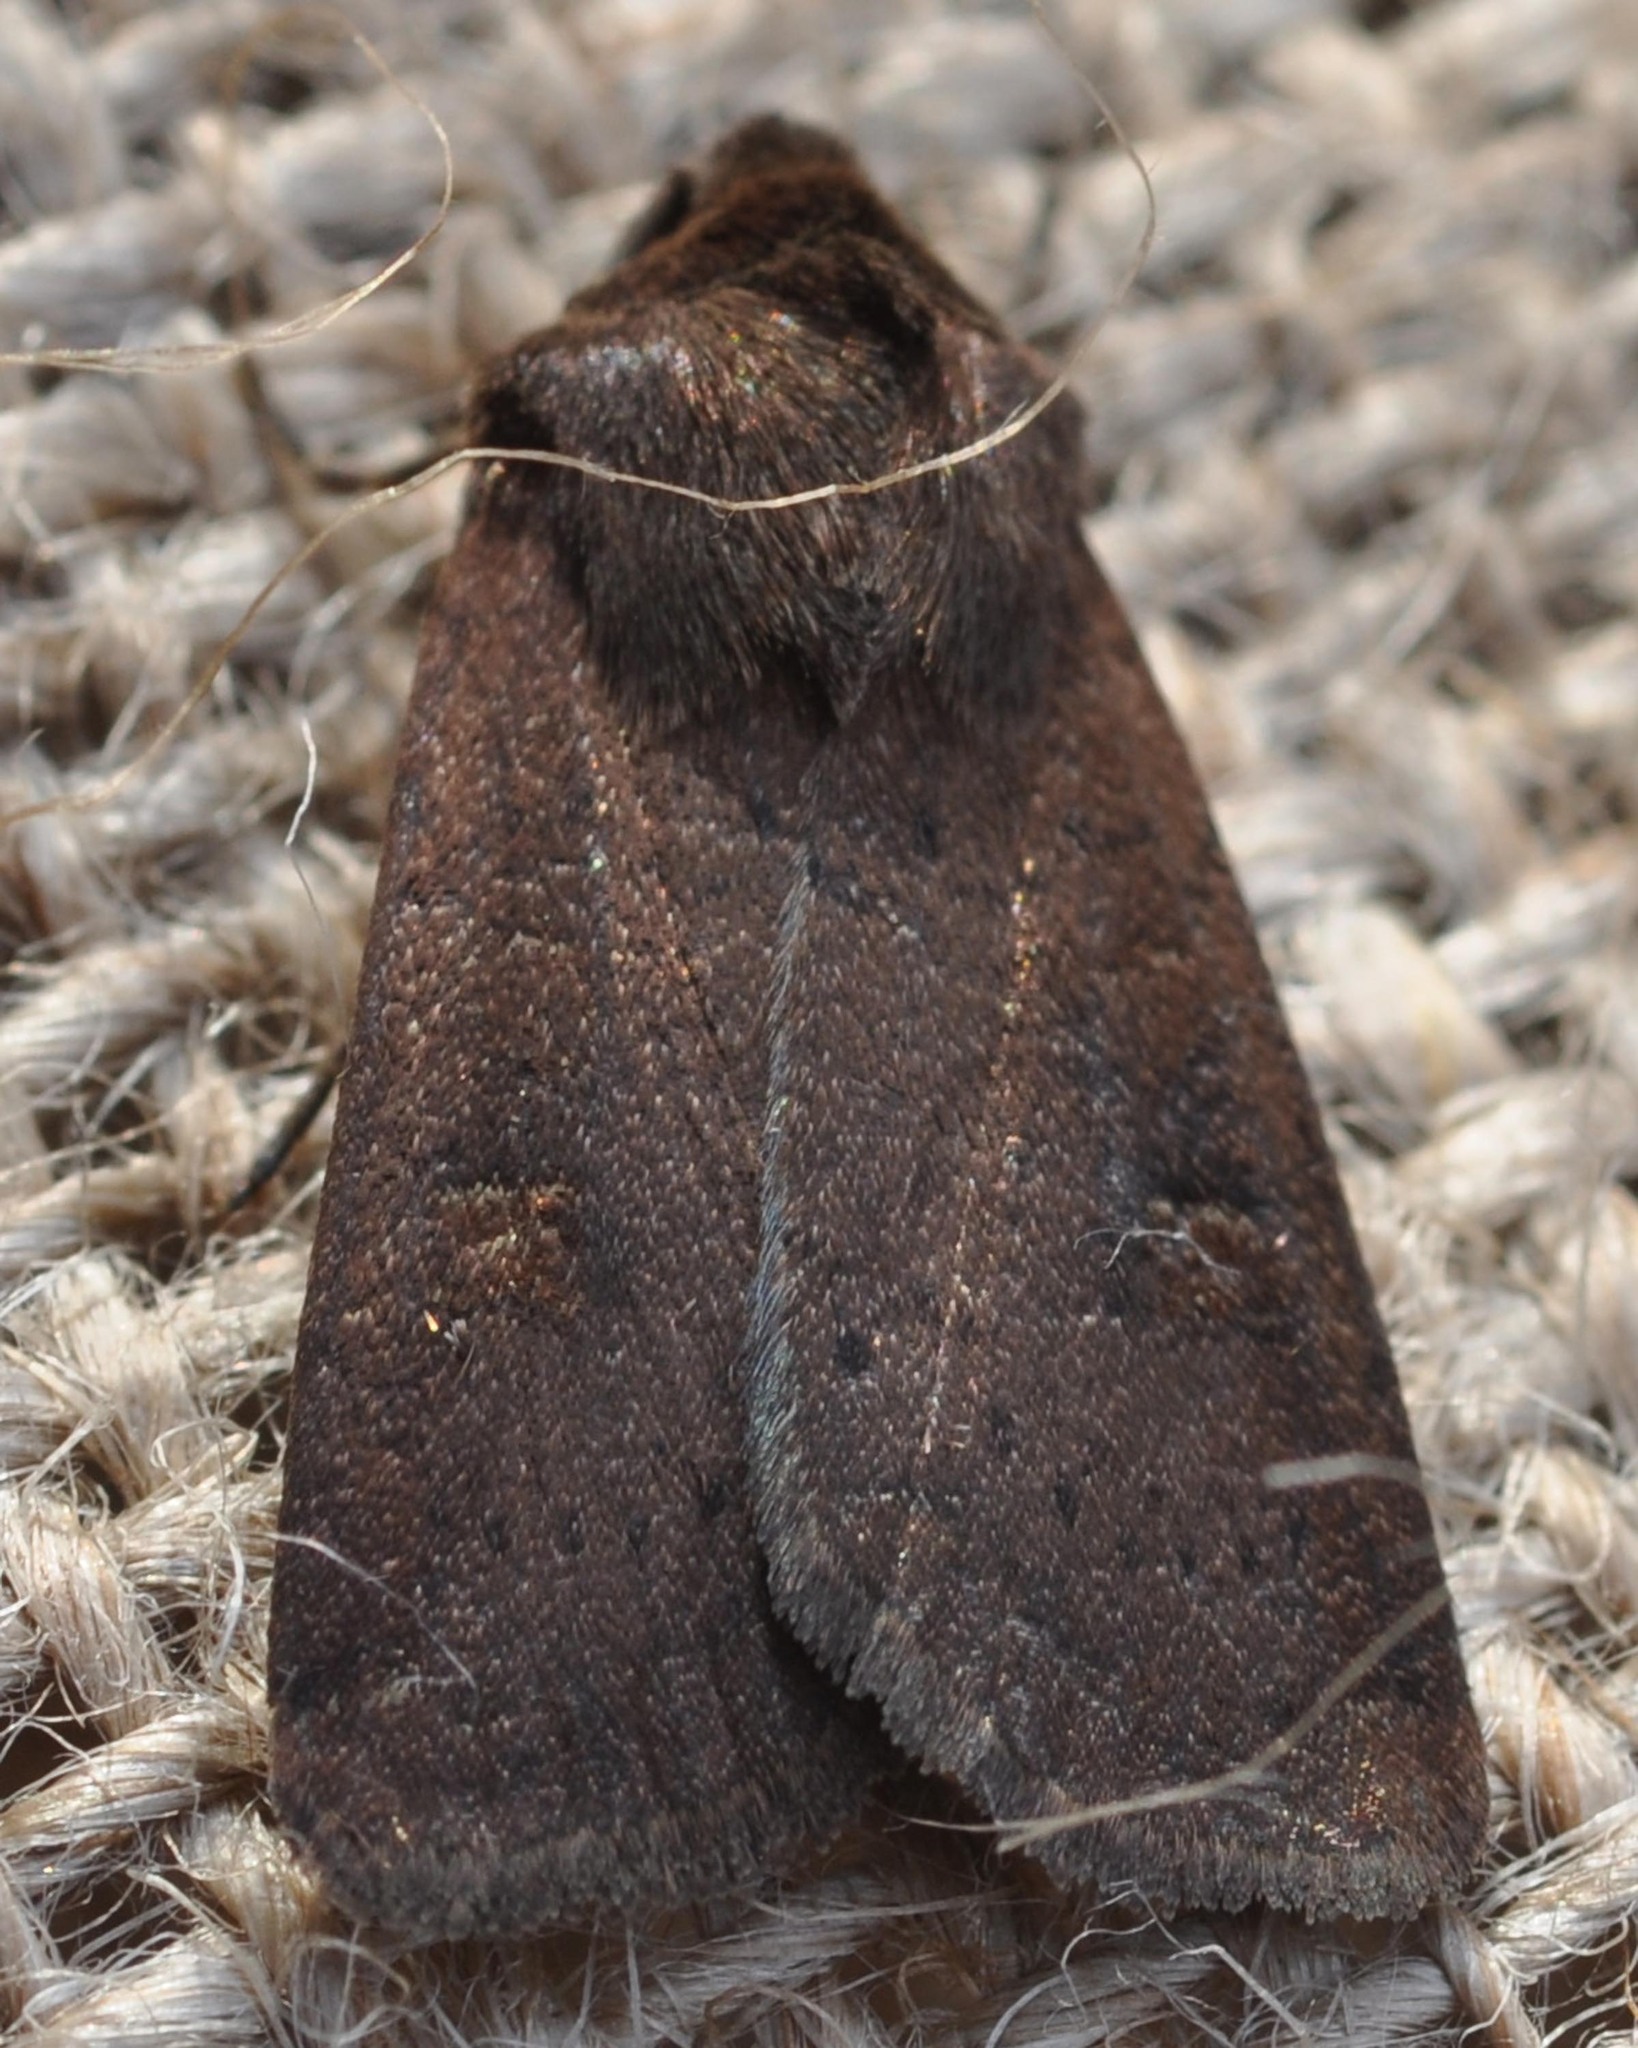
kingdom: Animalia
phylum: Arthropoda
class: Insecta
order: Lepidoptera
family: Noctuidae
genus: Xestia
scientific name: Xestia xanthographa
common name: Square-spot rustic
